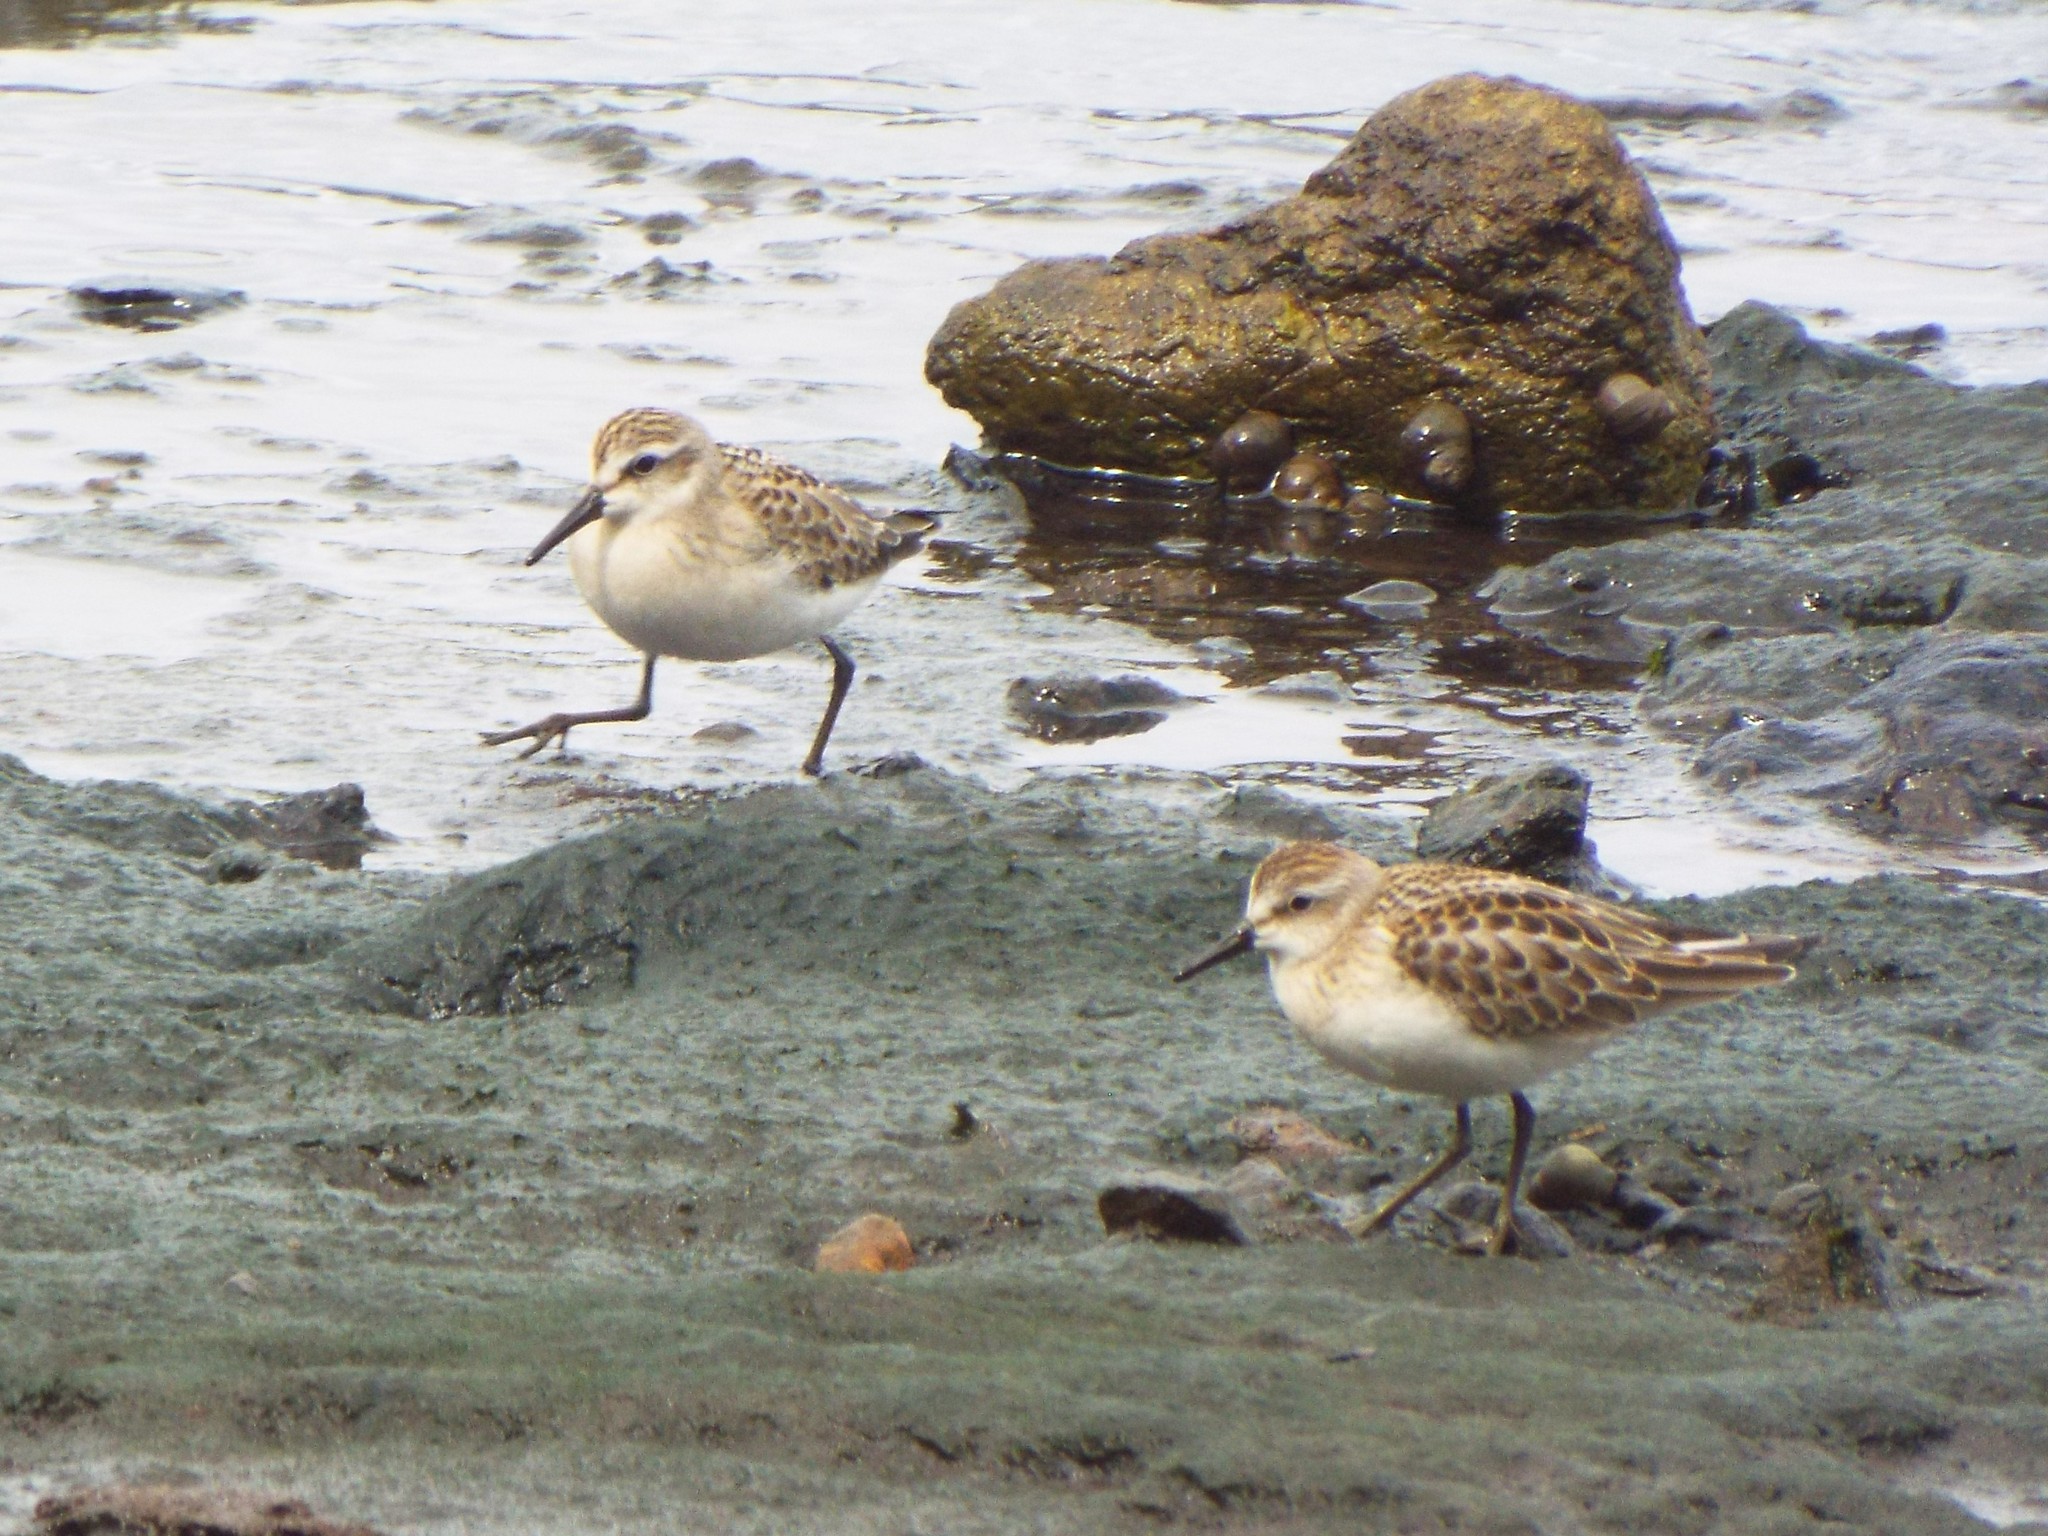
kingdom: Animalia
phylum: Chordata
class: Aves
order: Charadriiformes
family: Scolopacidae
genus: Calidris
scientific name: Calidris pusilla
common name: Semipalmated sandpiper
